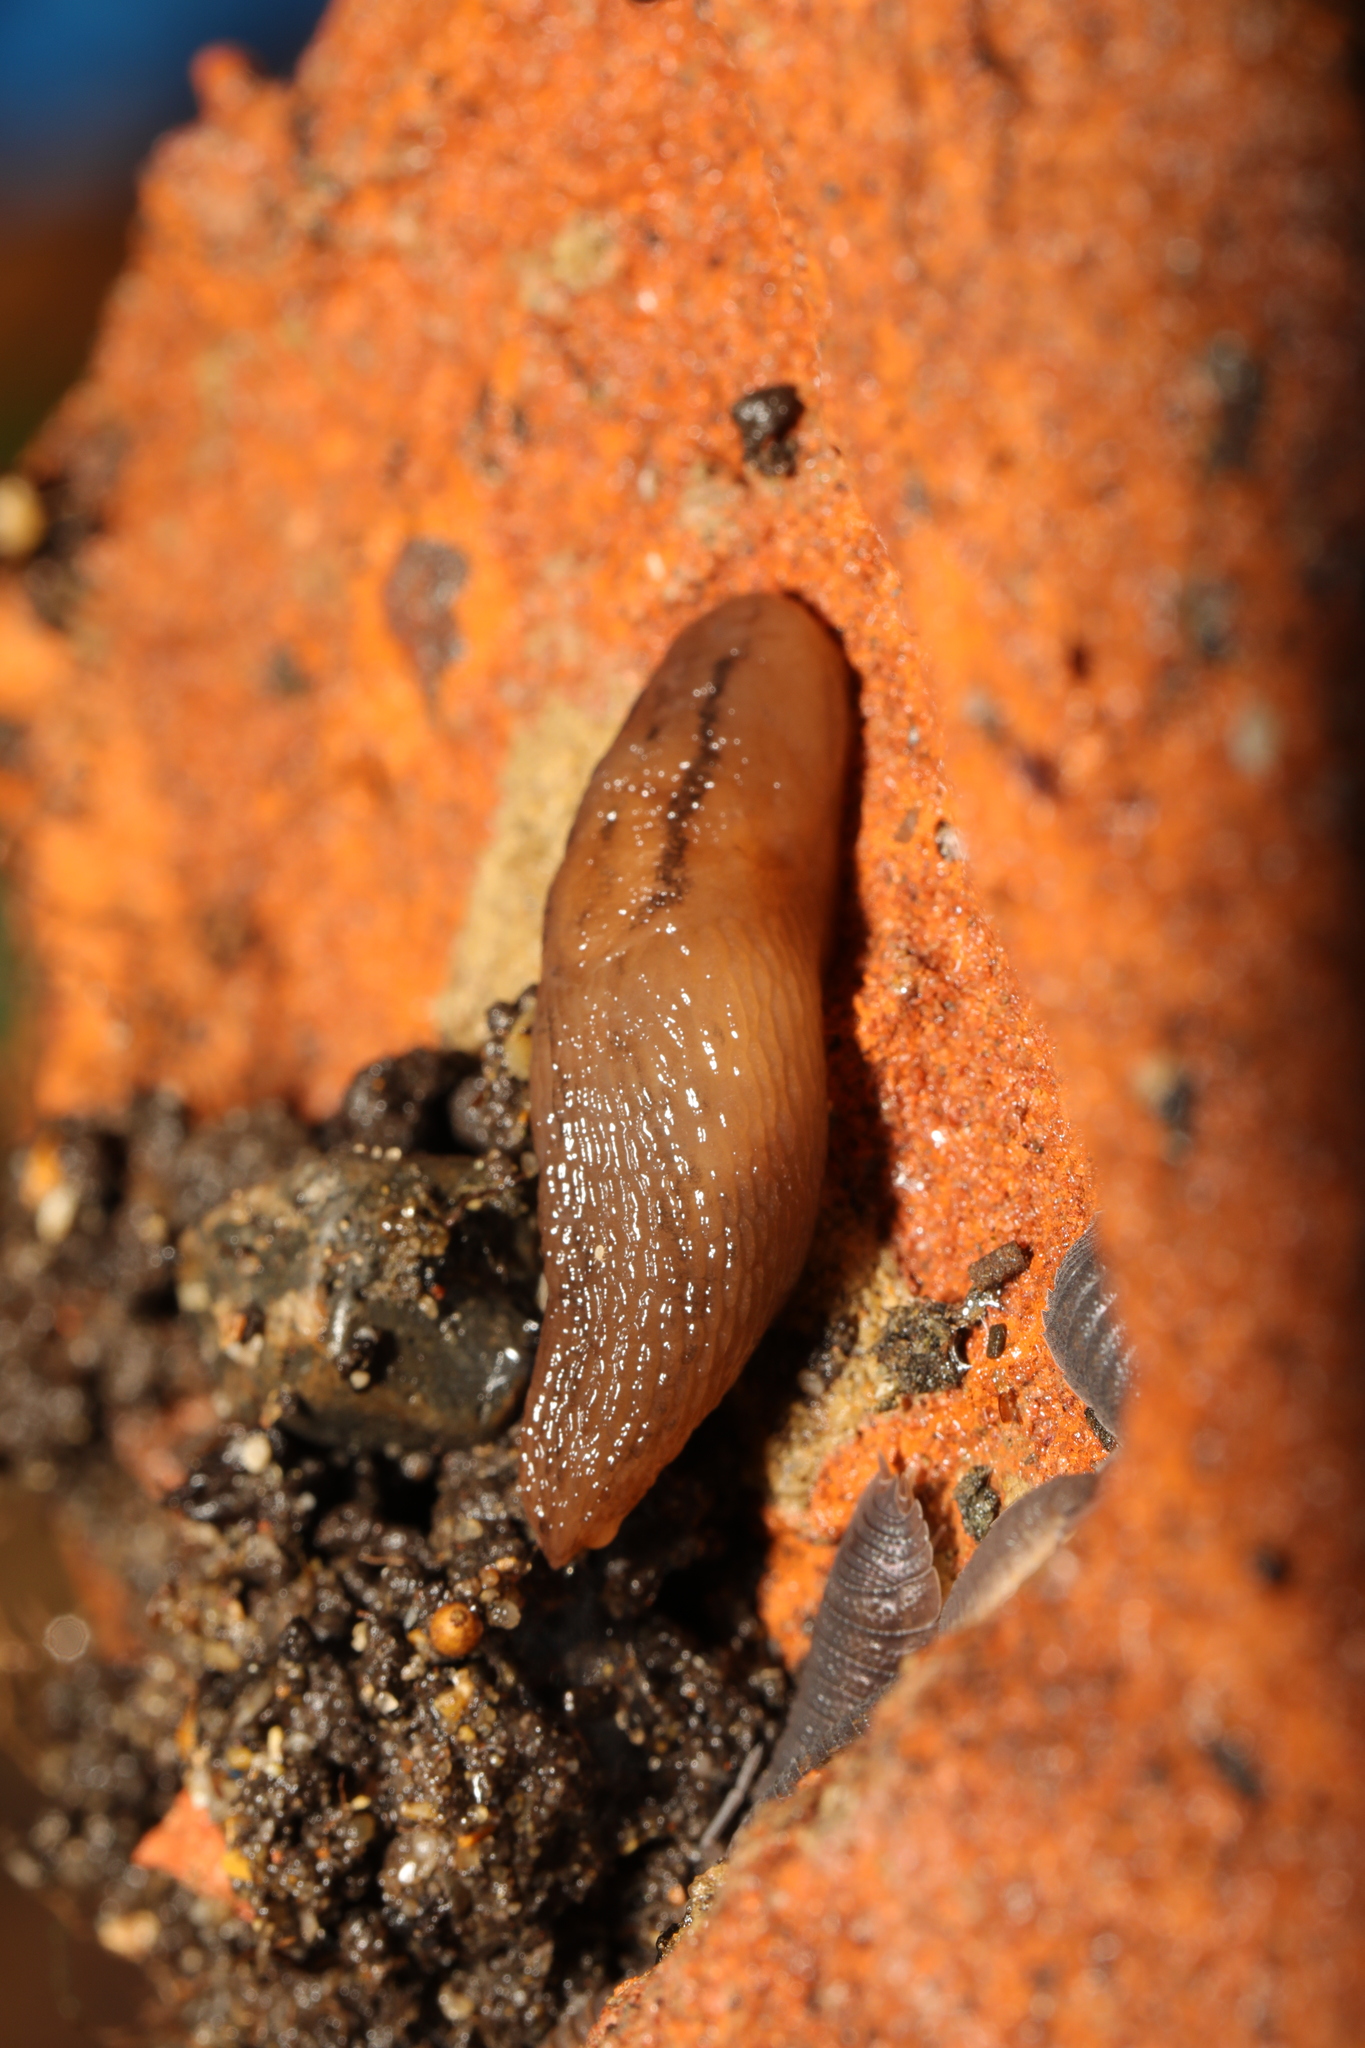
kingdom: Animalia
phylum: Mollusca
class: Gastropoda
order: Stylommatophora
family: Limacidae
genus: Ambigolimax
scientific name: Ambigolimax
